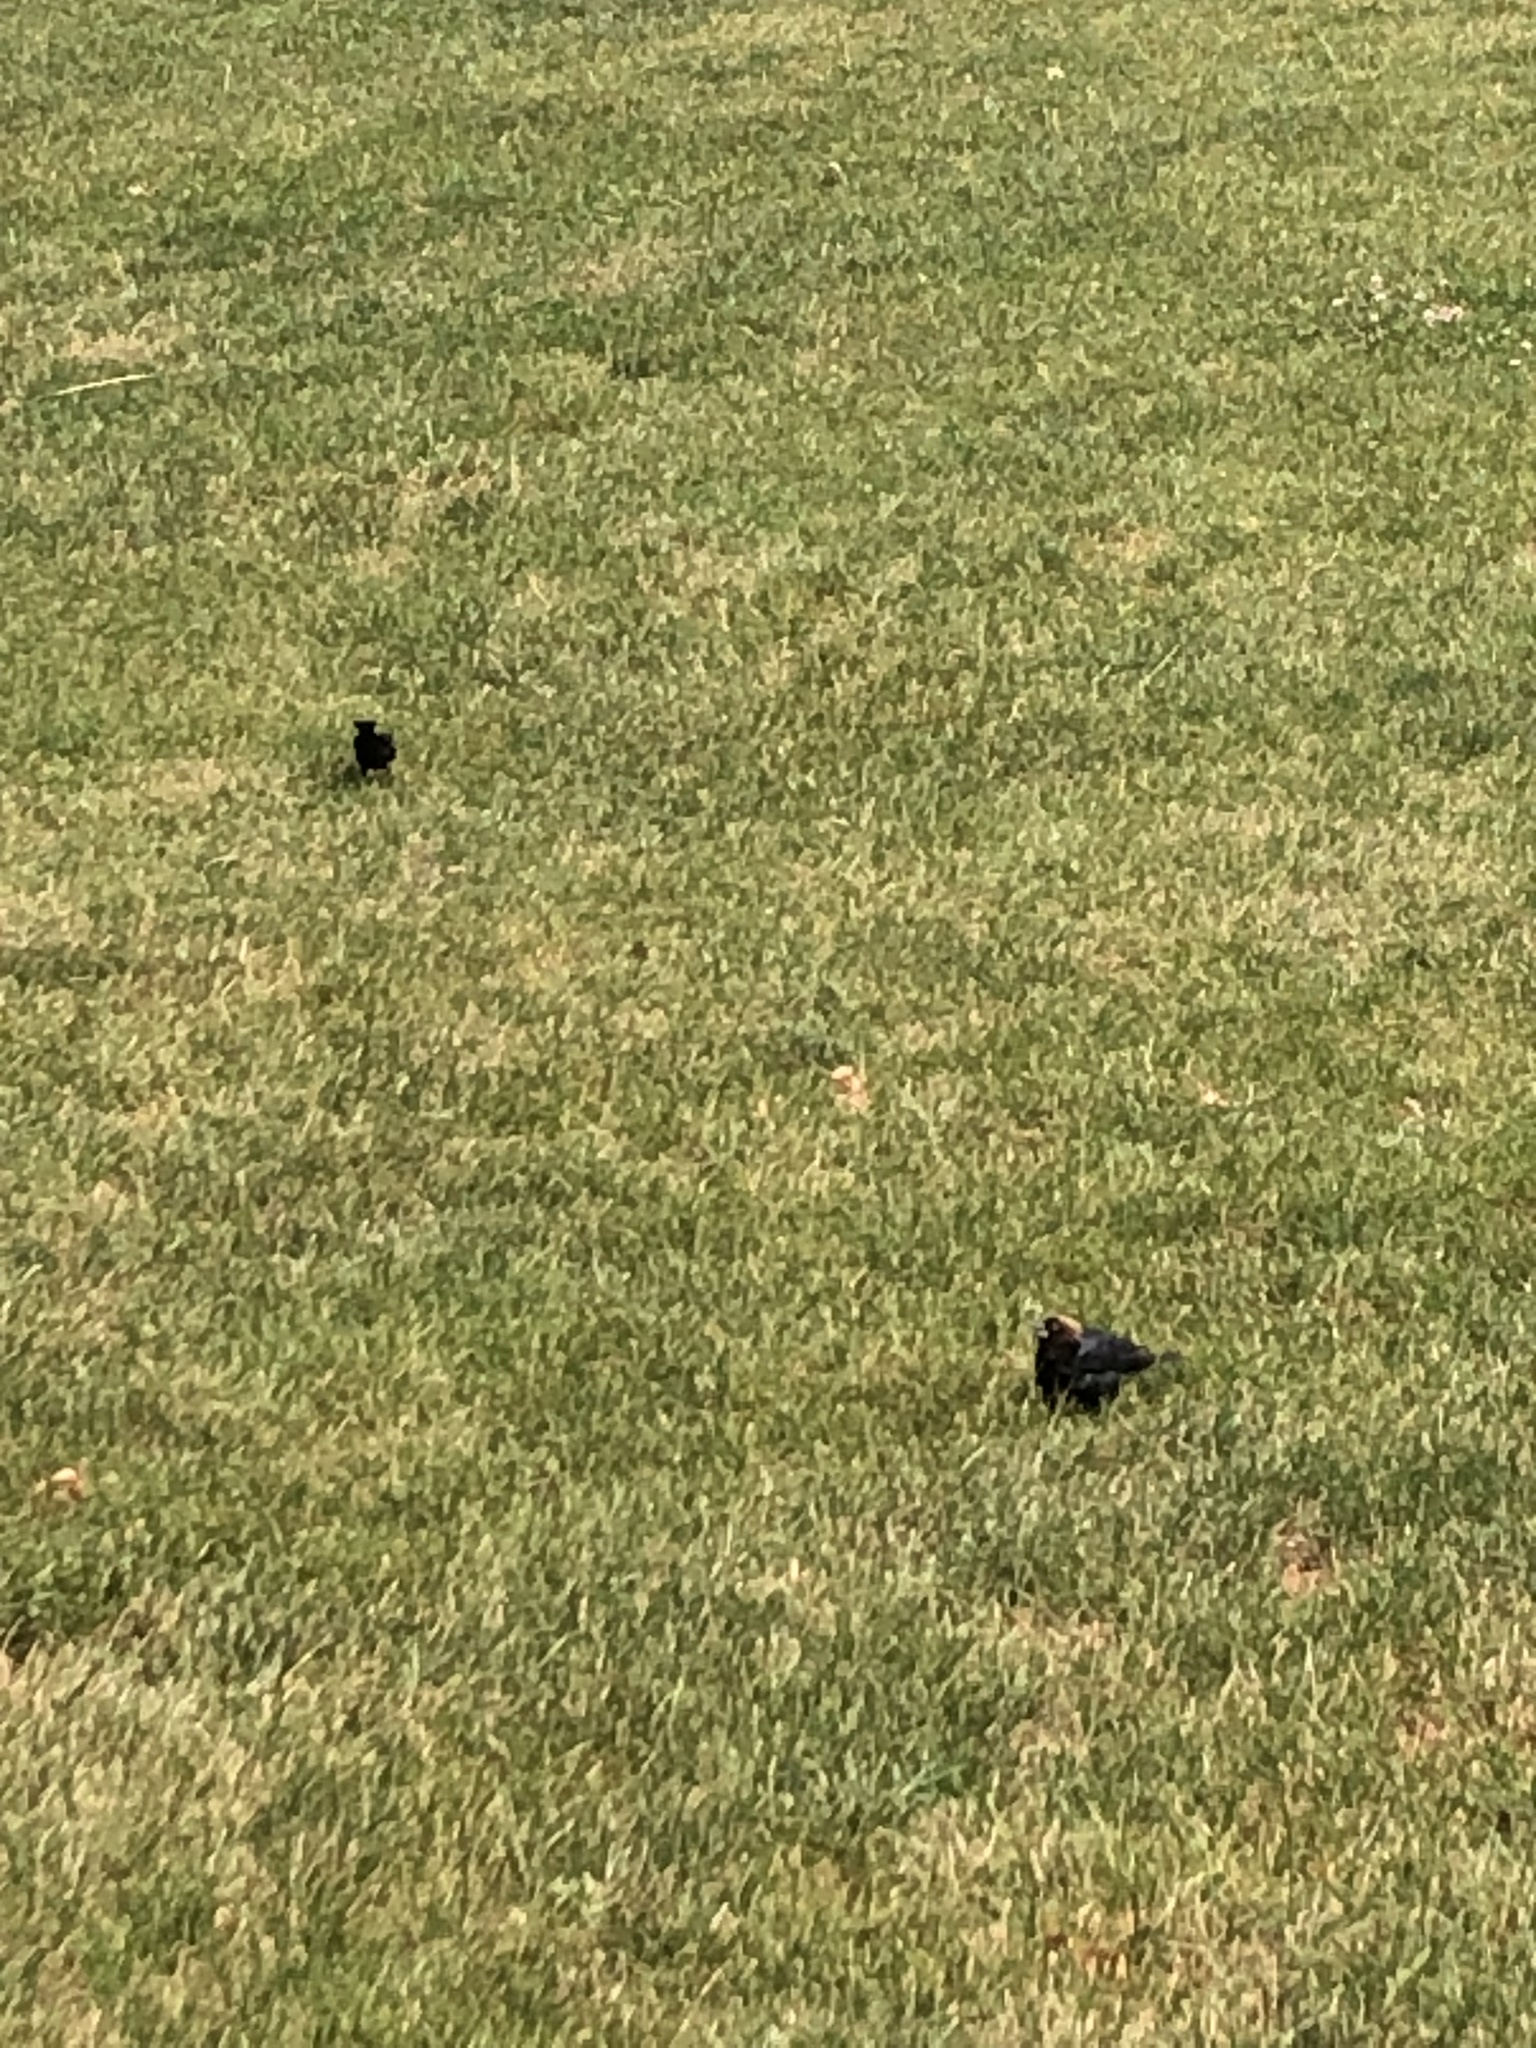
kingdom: Animalia
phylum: Chordata
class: Aves
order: Passeriformes
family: Icteridae
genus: Molothrus
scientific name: Molothrus ater
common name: Brown-headed cowbird
